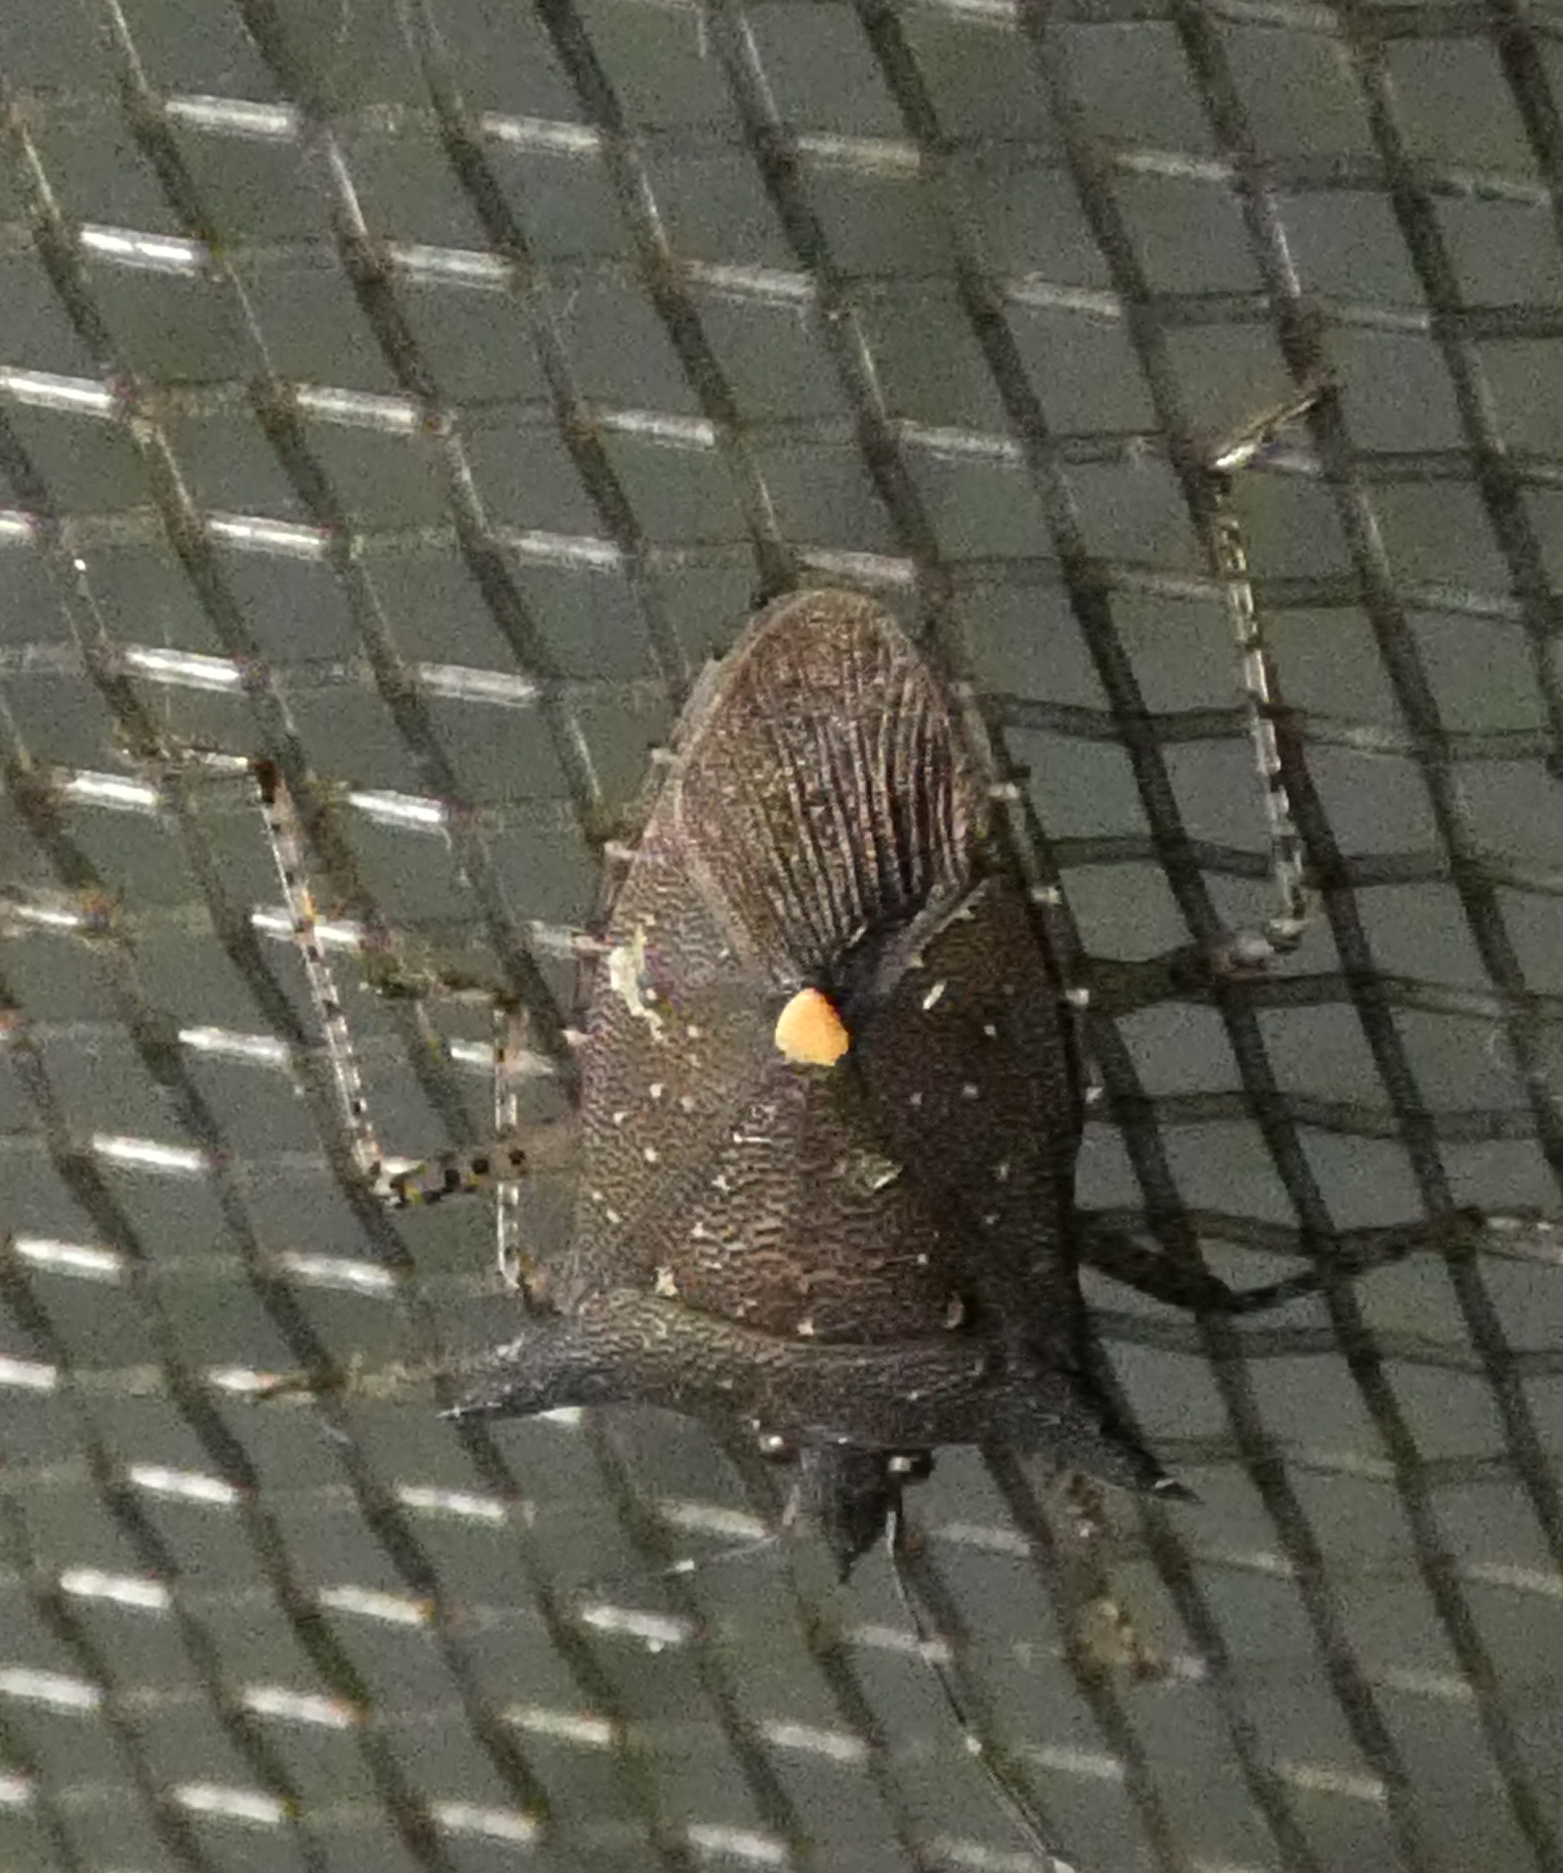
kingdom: Animalia
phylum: Arthropoda
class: Insecta
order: Hemiptera
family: Pentatomidae
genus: Proxys
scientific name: Proxys albopunctulatus
